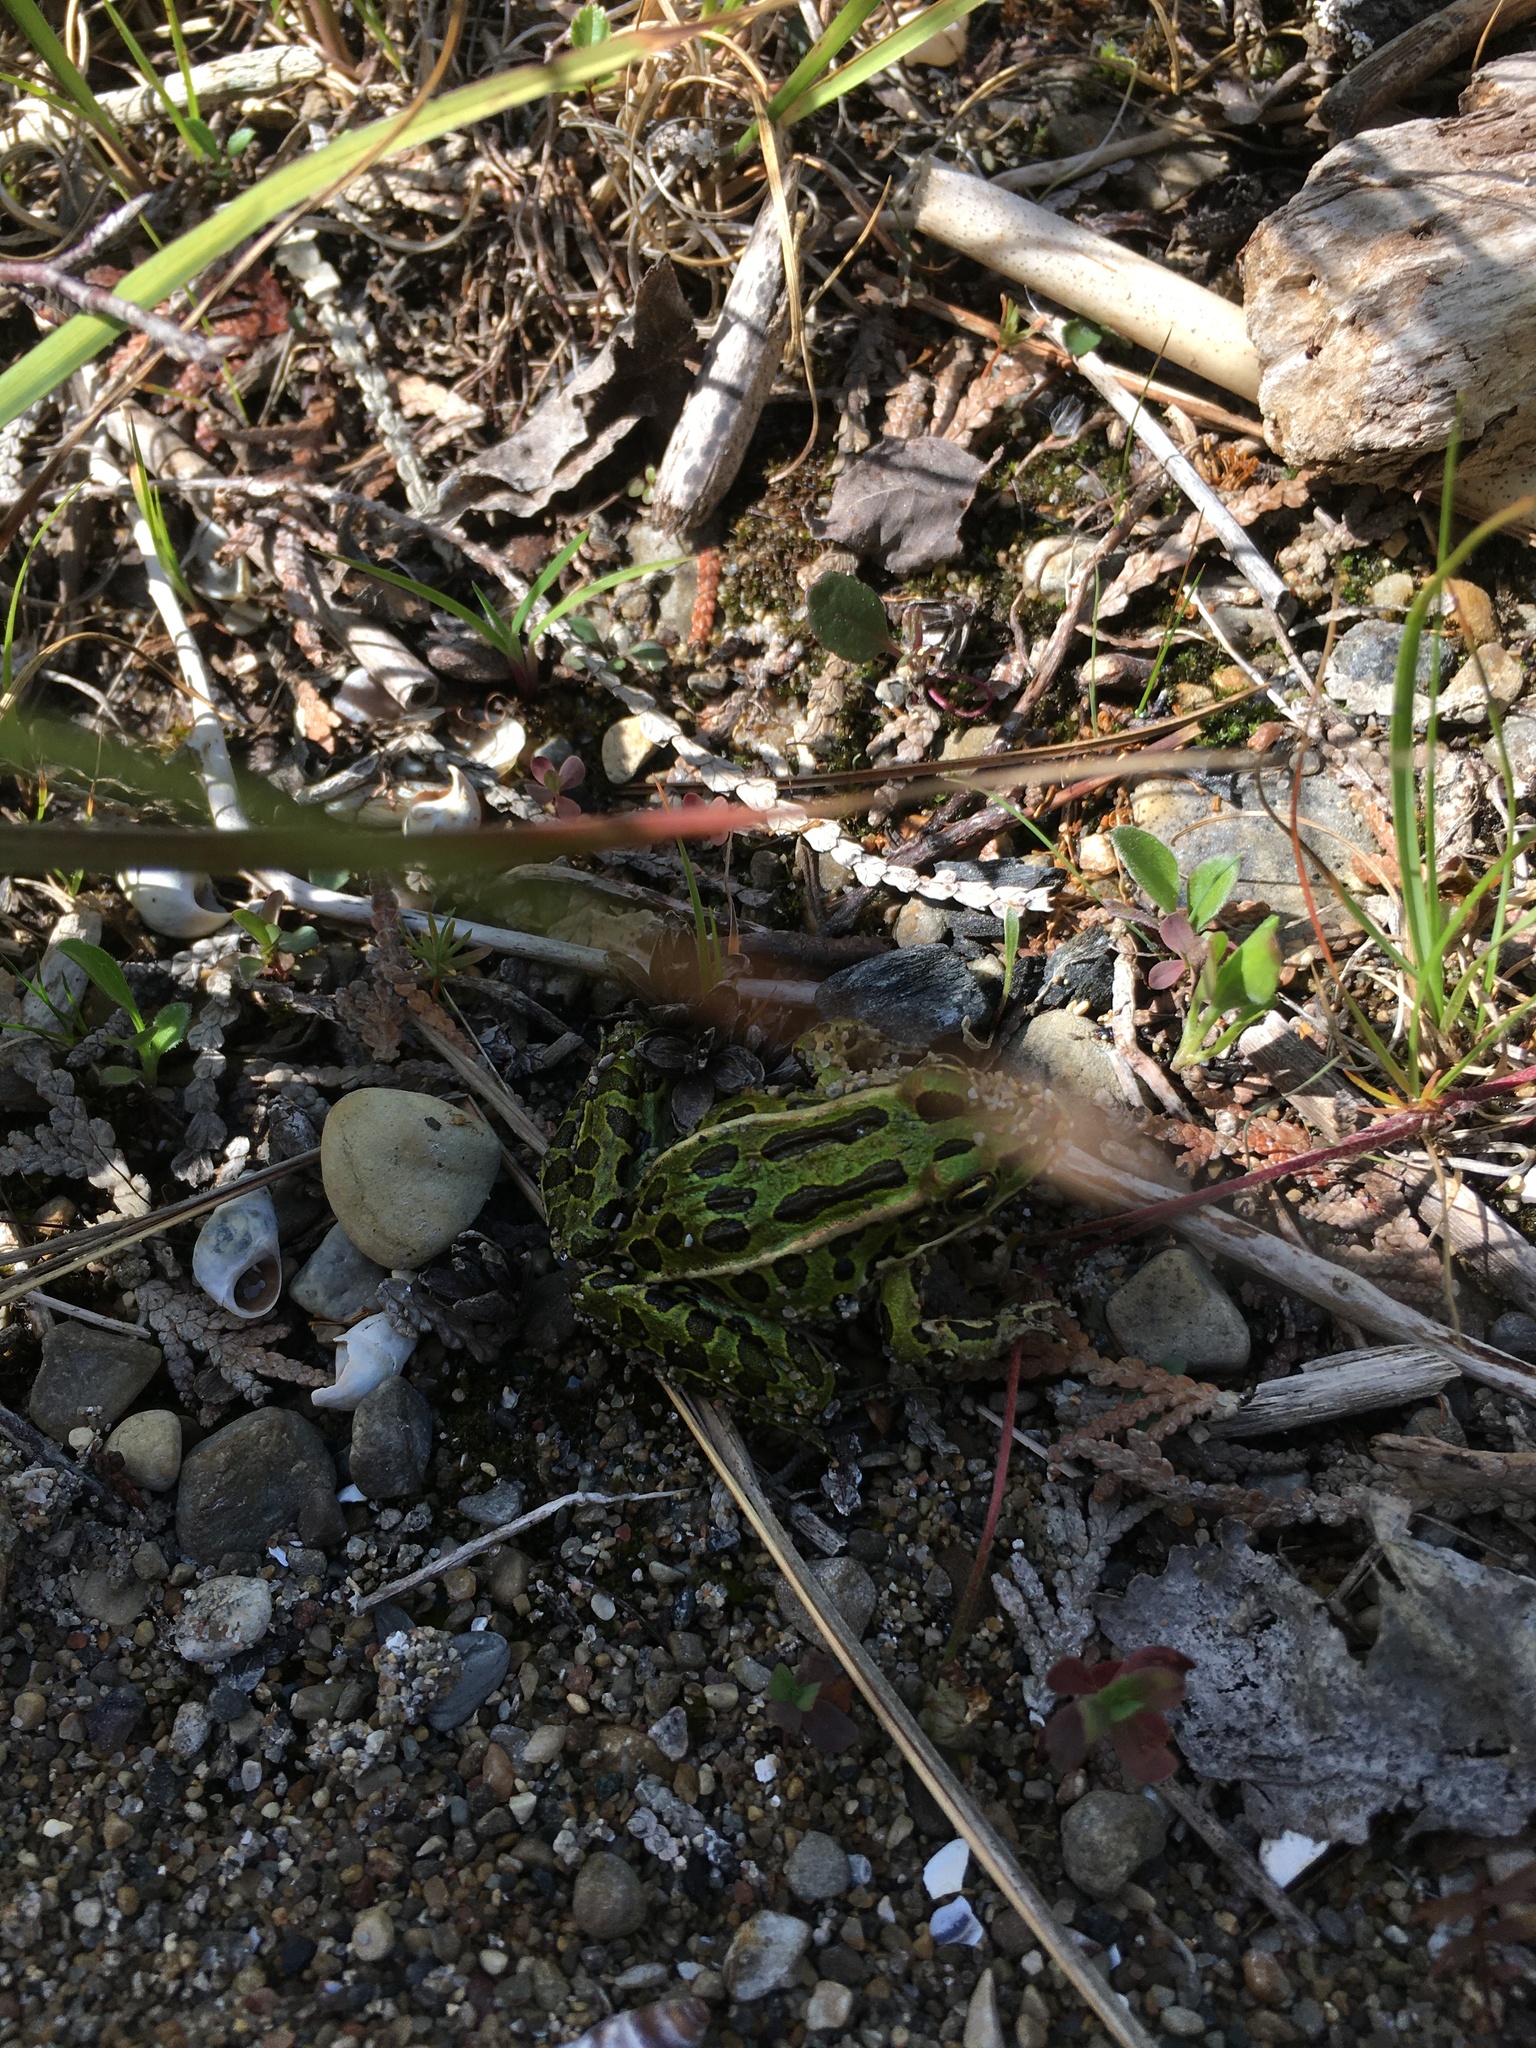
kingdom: Animalia
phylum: Chordata
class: Amphibia
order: Anura
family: Ranidae
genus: Lithobates
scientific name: Lithobates pipiens
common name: Northern leopard frog
